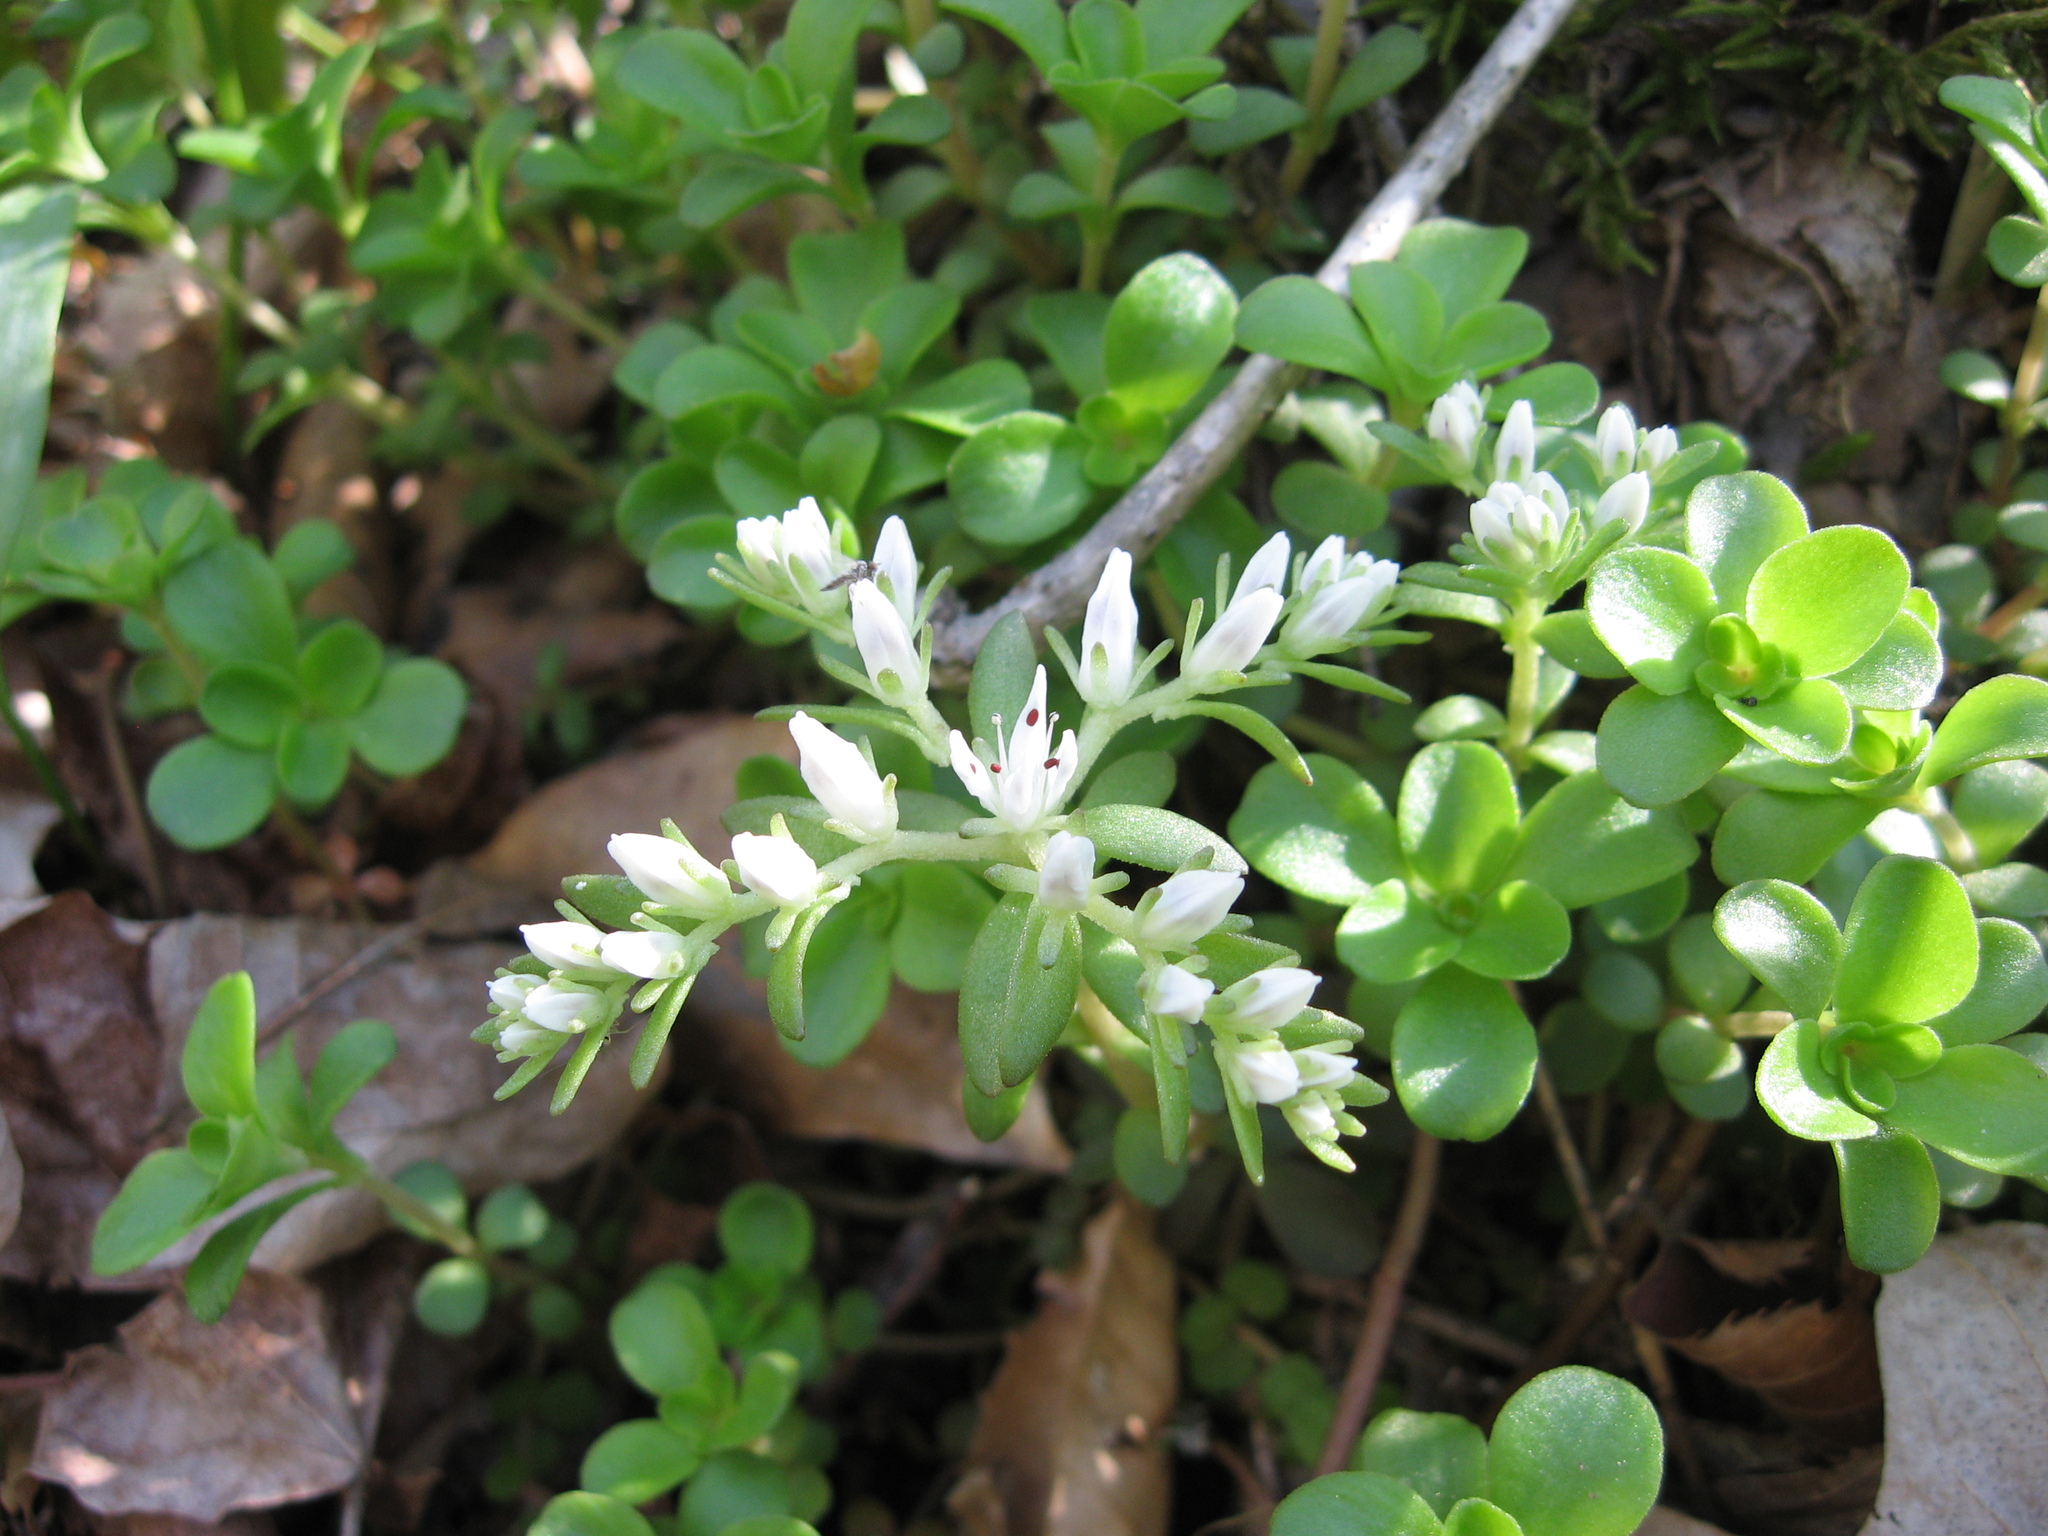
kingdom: Plantae
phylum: Tracheophyta
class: Magnoliopsida
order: Saxifragales
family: Crassulaceae
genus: Sedum
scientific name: Sedum ternatum
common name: Wild stonecrop
